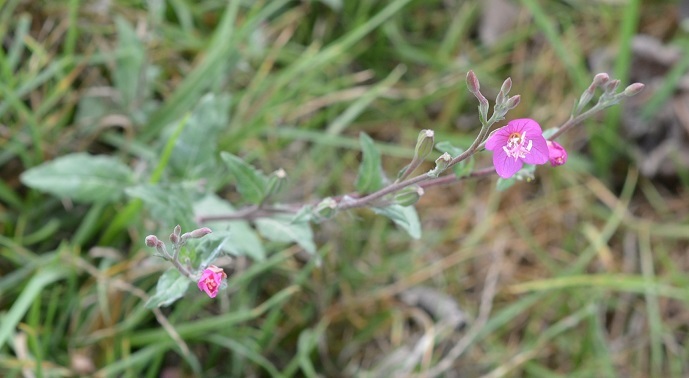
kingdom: Plantae
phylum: Tracheophyta
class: Magnoliopsida
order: Myrtales
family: Onagraceae
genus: Oenothera
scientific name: Oenothera rosea
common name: Rosy evening-primrose
